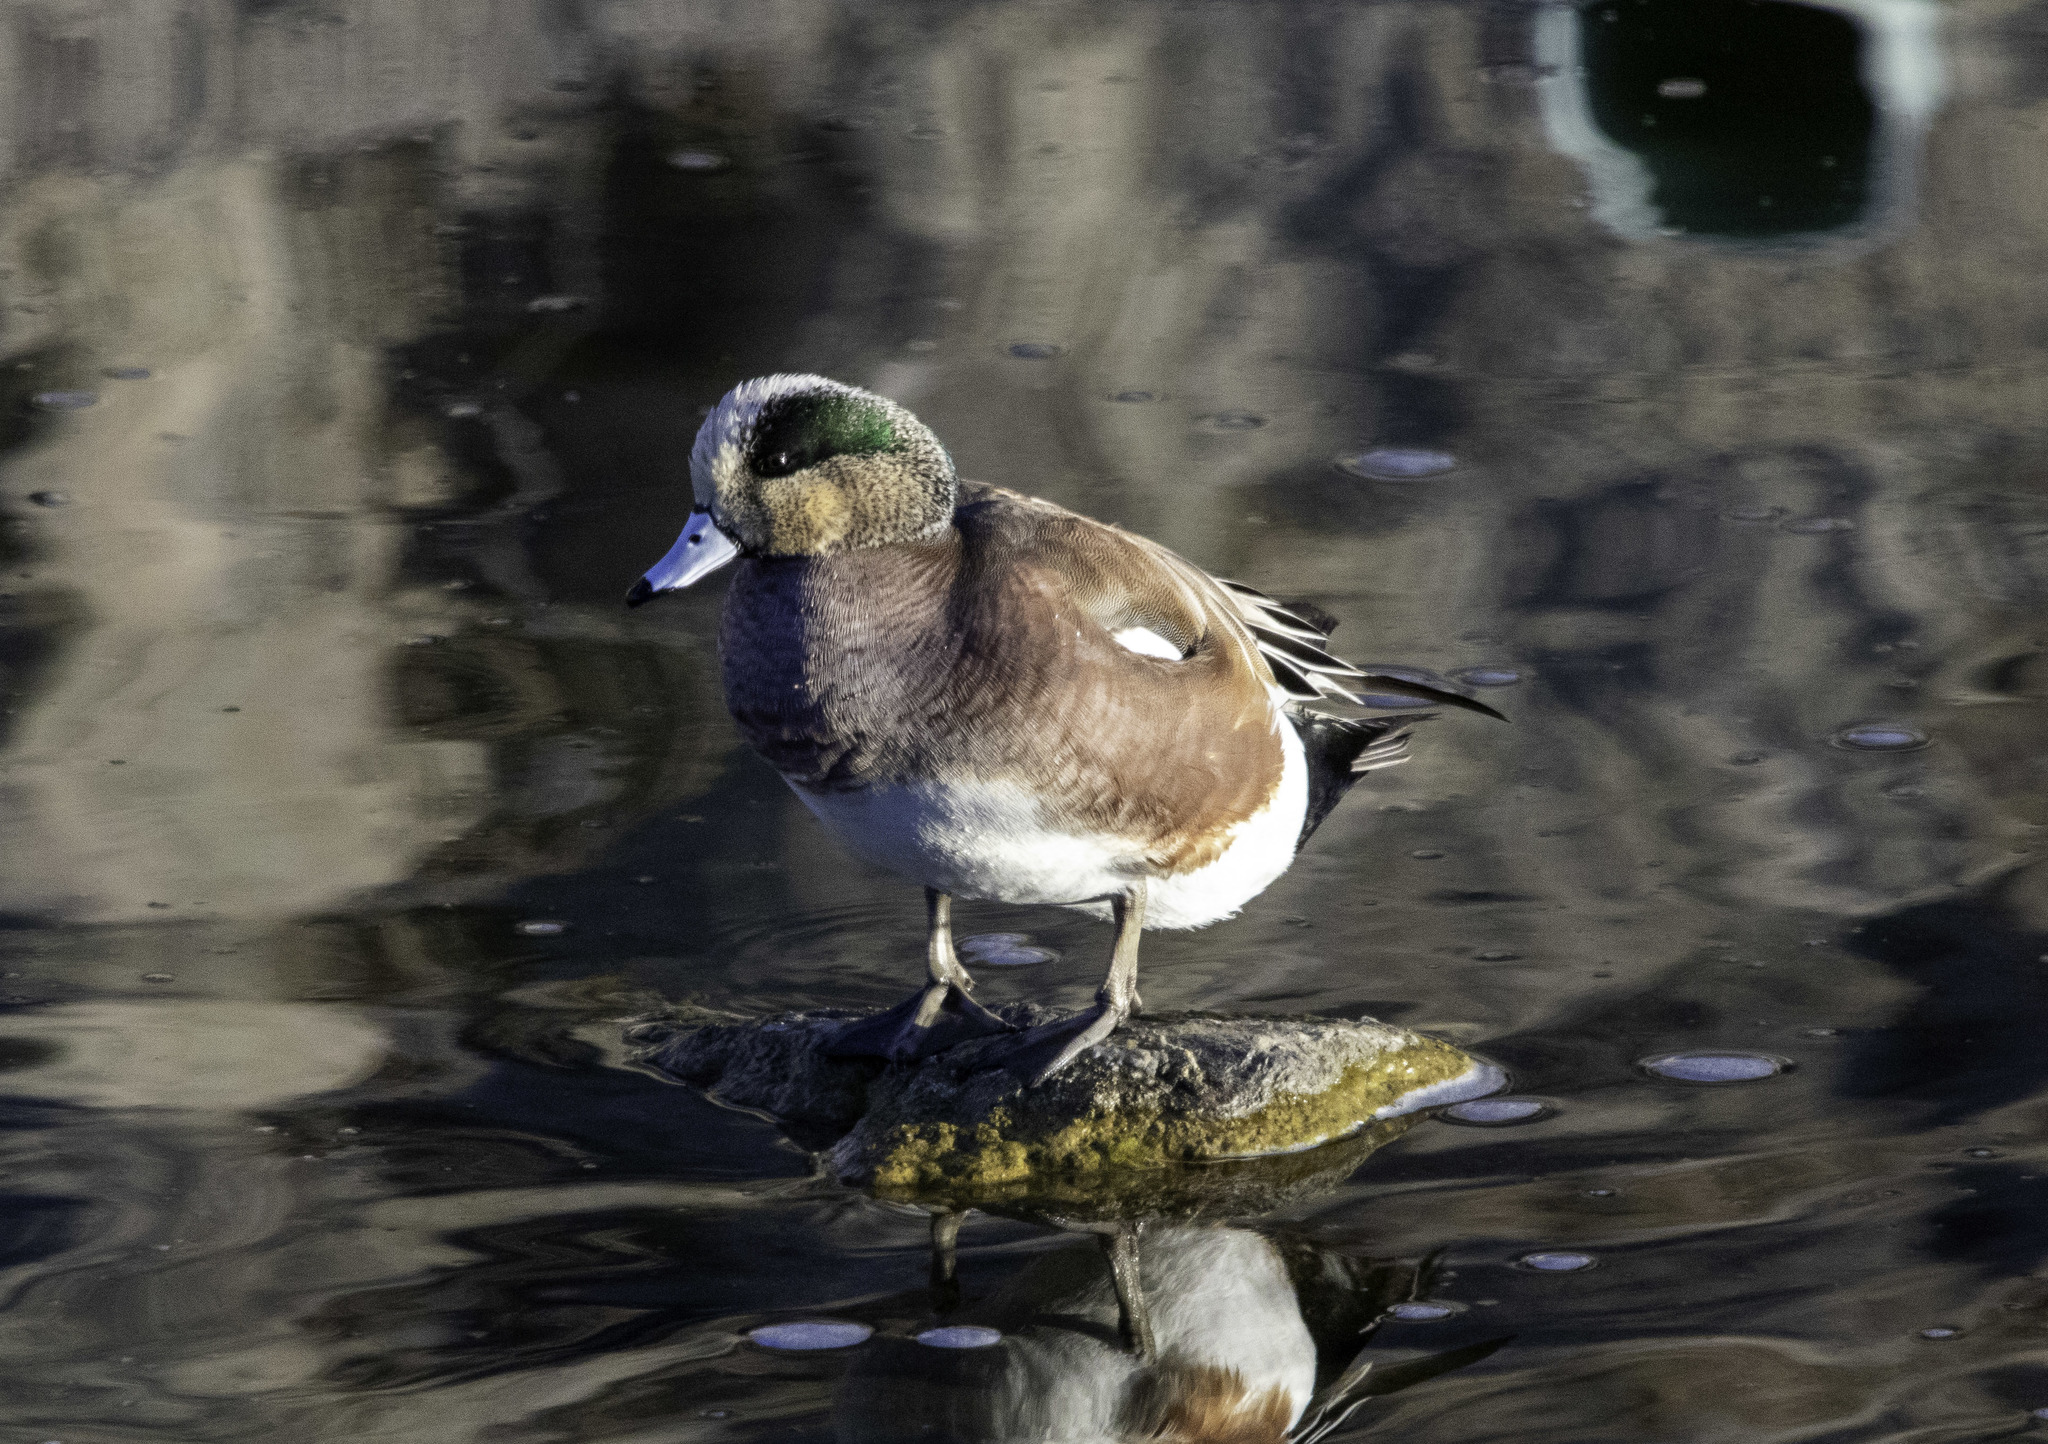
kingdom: Animalia
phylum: Chordata
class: Aves
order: Anseriformes
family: Anatidae
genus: Mareca
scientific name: Mareca americana
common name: American wigeon
